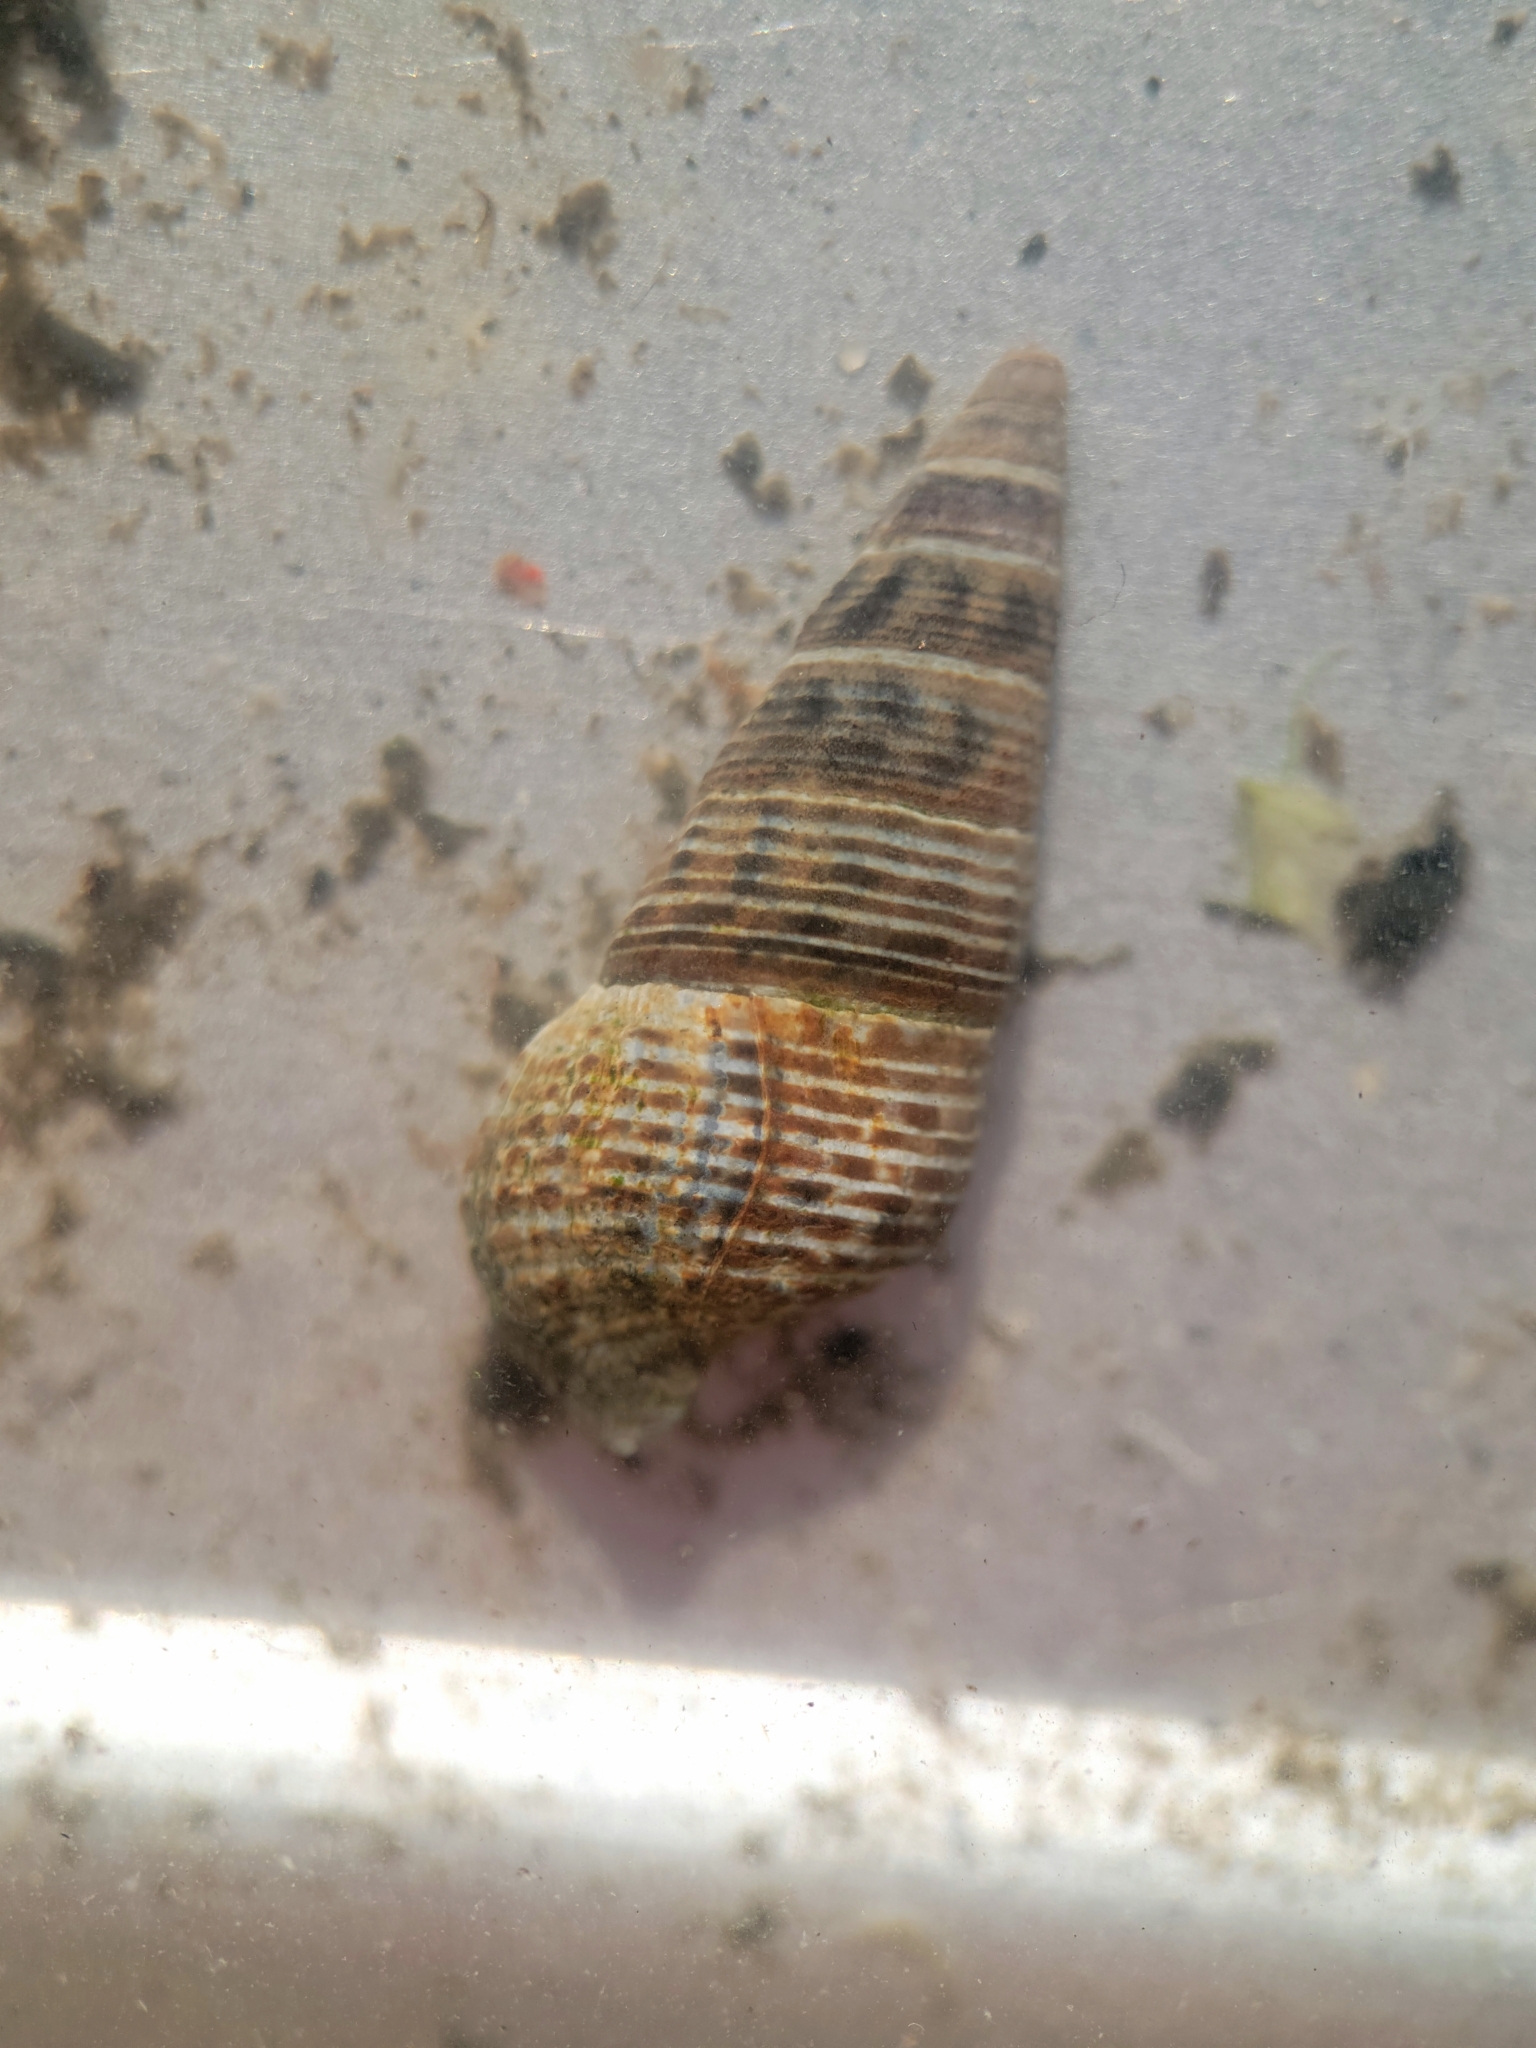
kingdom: Animalia
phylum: Mollusca
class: Gastropoda
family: Batillariidae
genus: Batillaria
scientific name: Batillaria attramentaria
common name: Japanese false cerith
